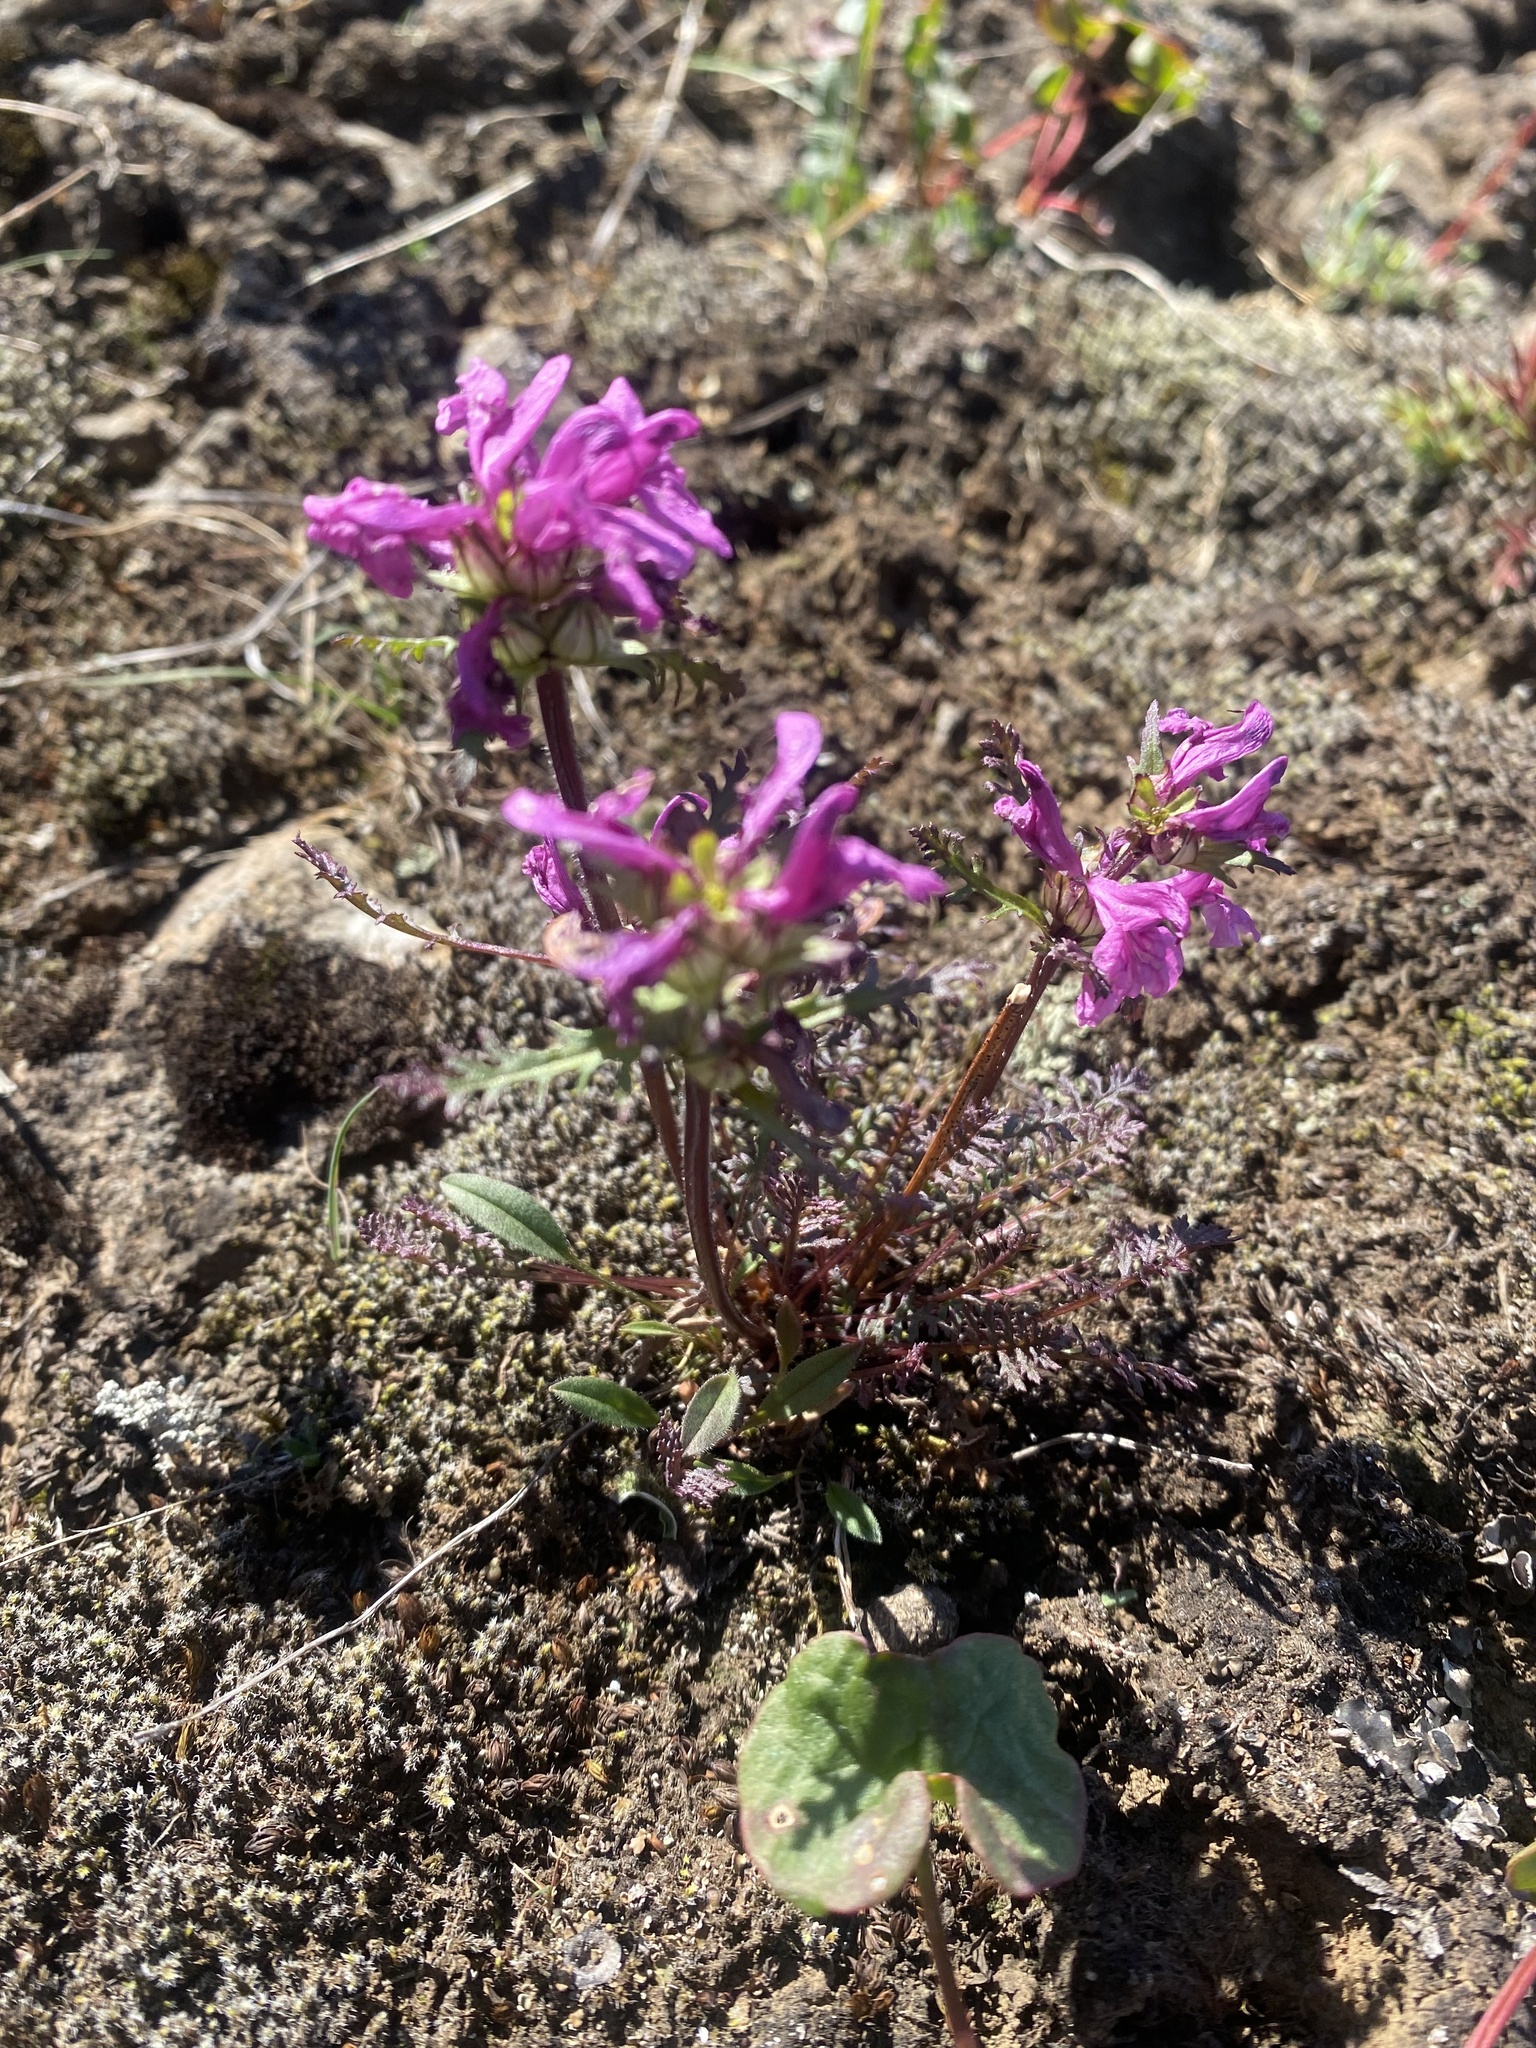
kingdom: Plantae
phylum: Tracheophyta
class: Magnoliopsida
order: Lamiales
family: Orobanchaceae
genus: Pedicularis
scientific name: Pedicularis amoena
